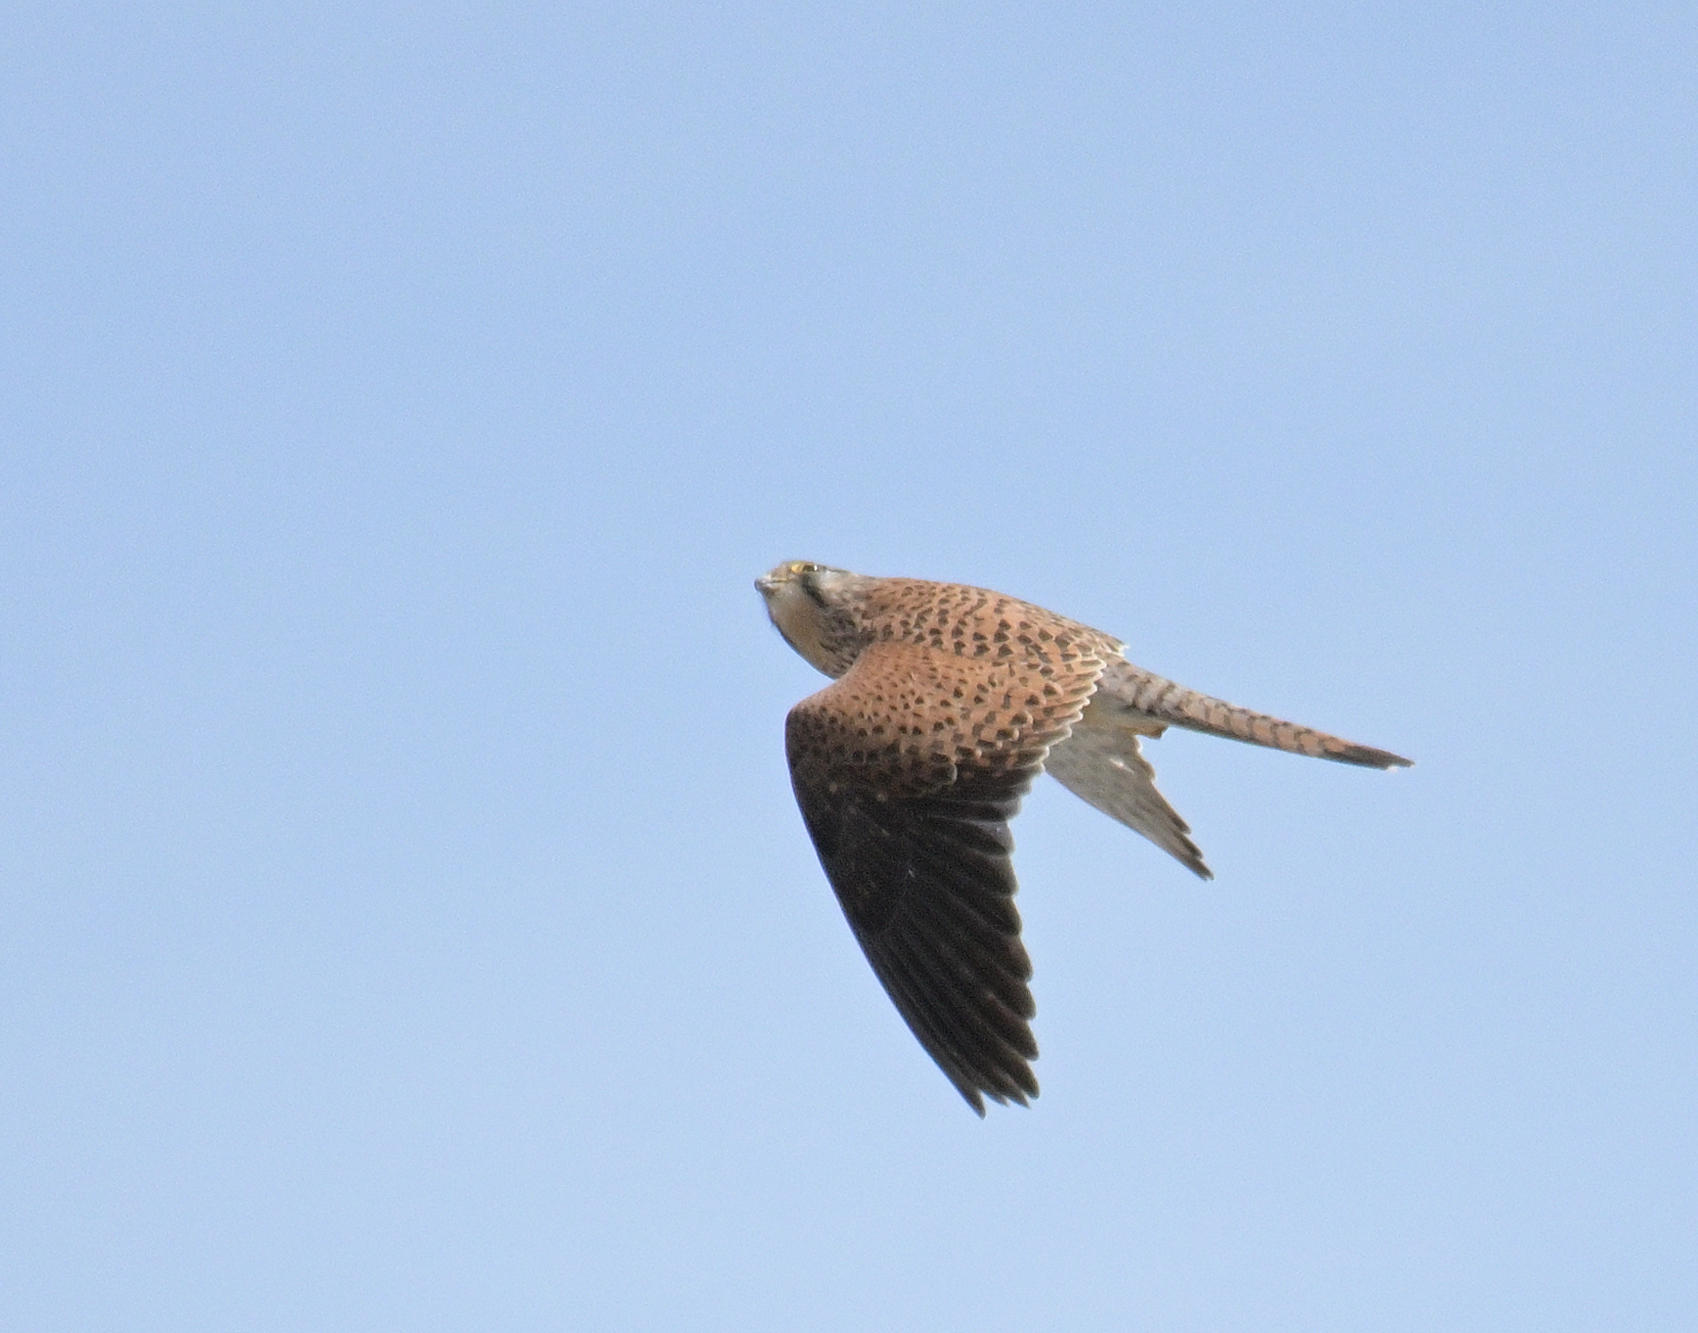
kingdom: Animalia
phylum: Chordata
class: Aves
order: Falconiformes
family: Falconidae
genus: Falco
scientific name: Falco tinnunculus
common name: Common kestrel
